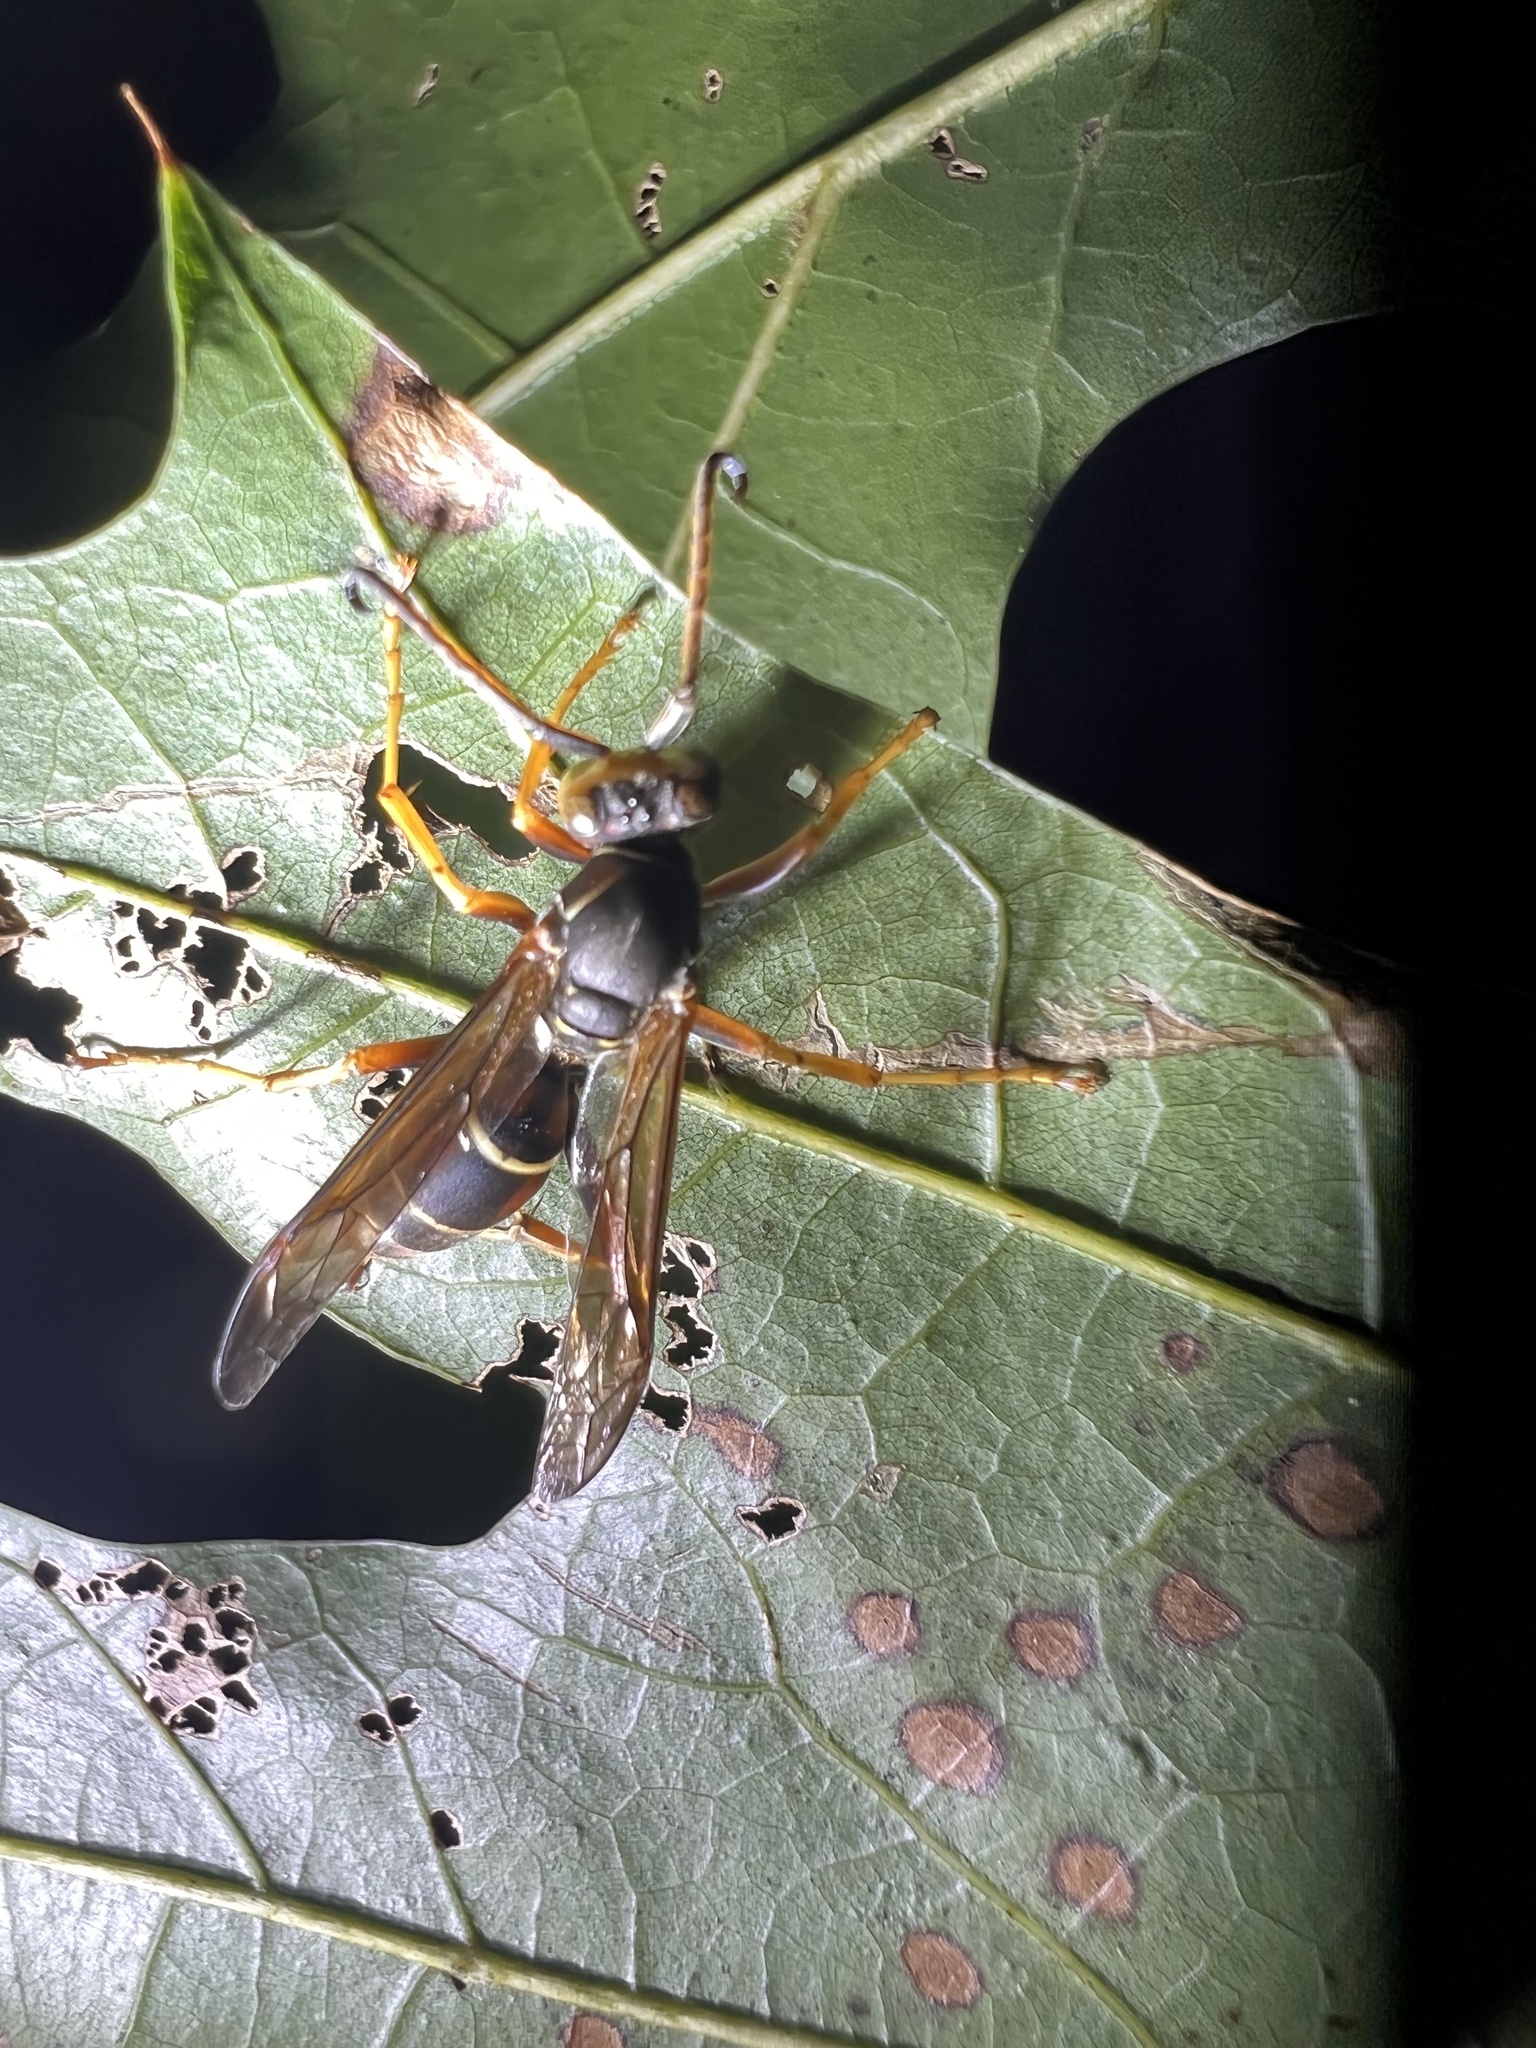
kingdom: Animalia
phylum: Arthropoda
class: Insecta
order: Hymenoptera
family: Eumenidae
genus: Polistes
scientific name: Polistes fuscatus
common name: Dark paper wasp
